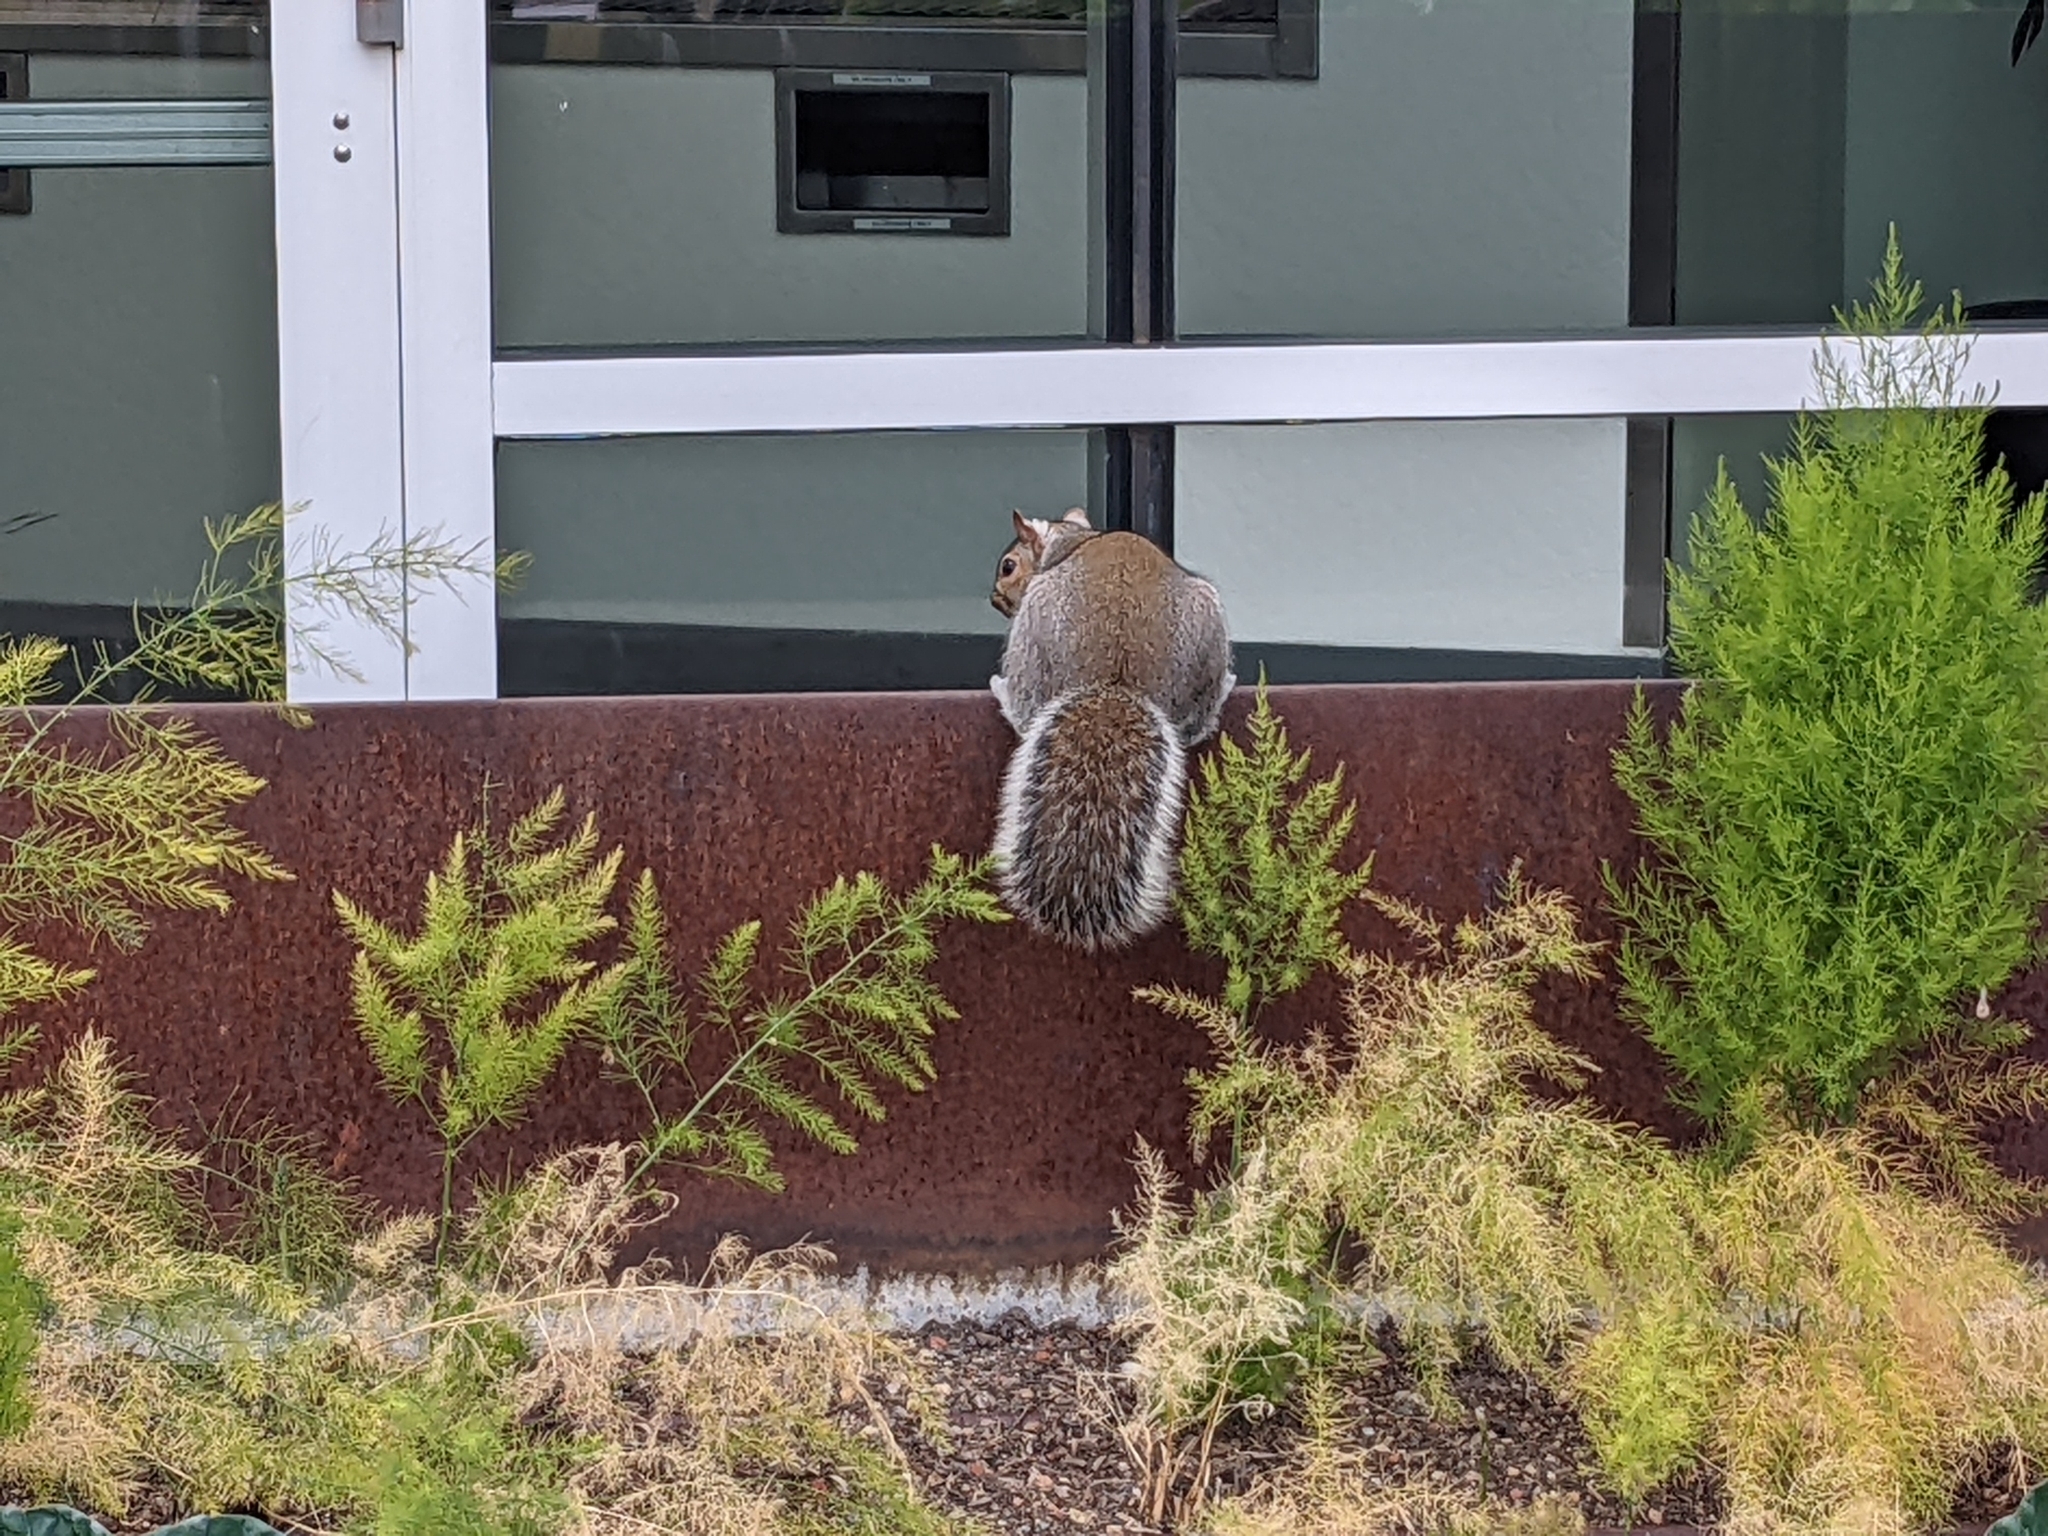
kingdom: Animalia
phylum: Chordata
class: Mammalia
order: Rodentia
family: Sciuridae
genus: Sciurus
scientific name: Sciurus carolinensis
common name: Eastern gray squirrel
